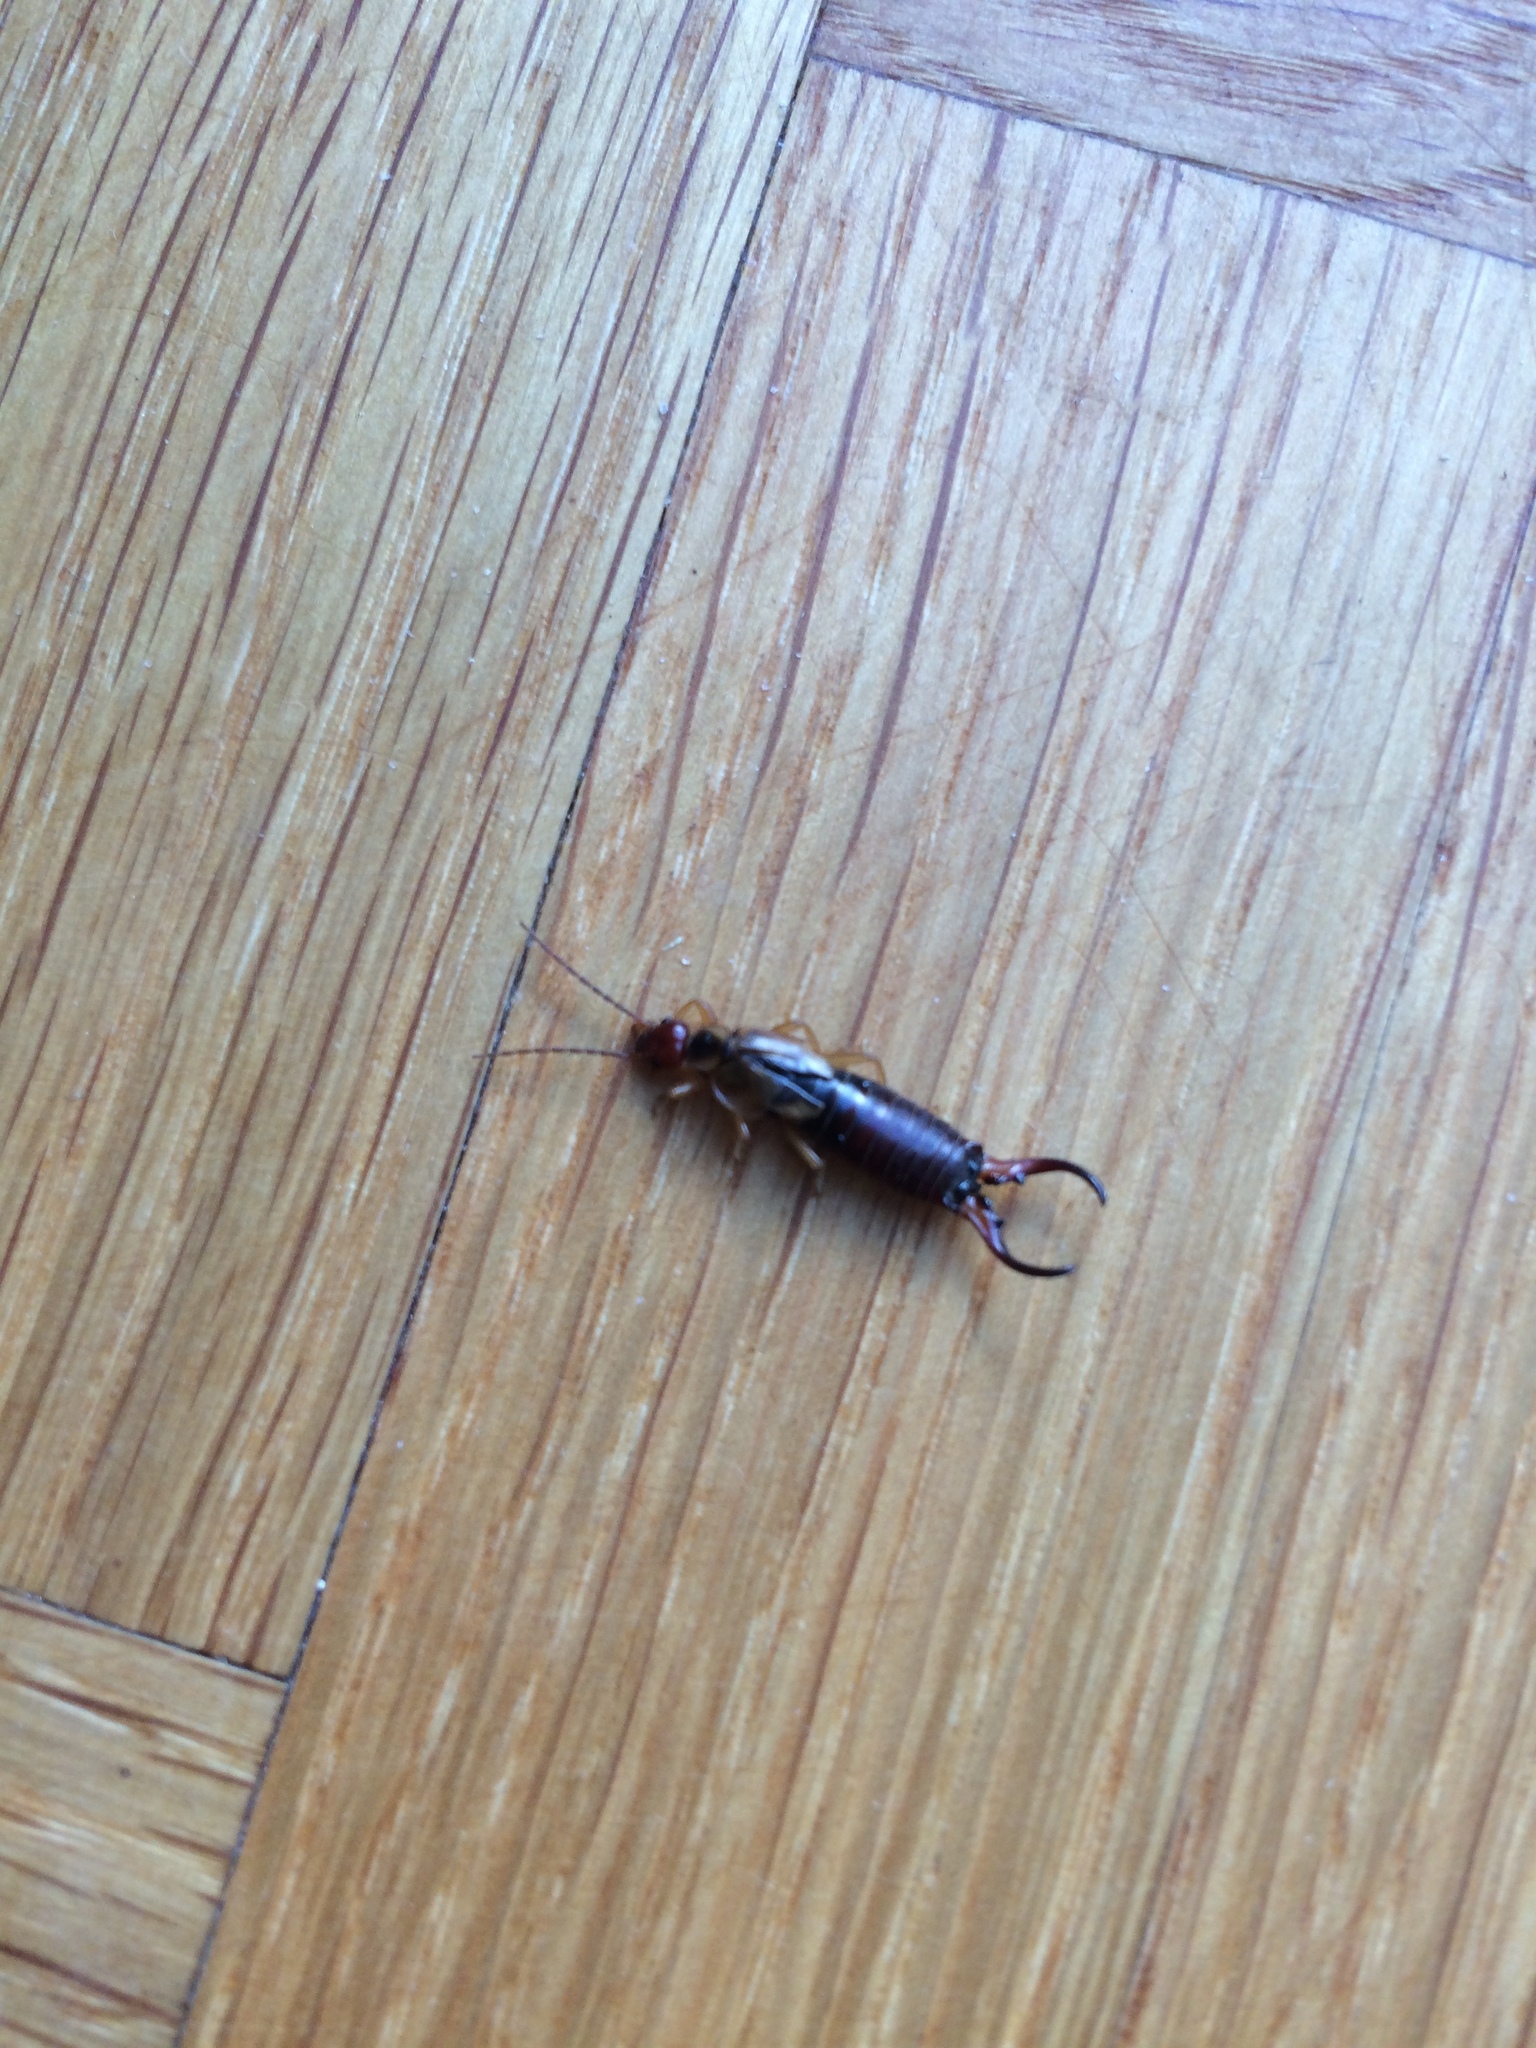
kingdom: Animalia
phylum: Arthropoda
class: Insecta
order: Dermaptera
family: Forficulidae
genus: Forficula
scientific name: Forficula
